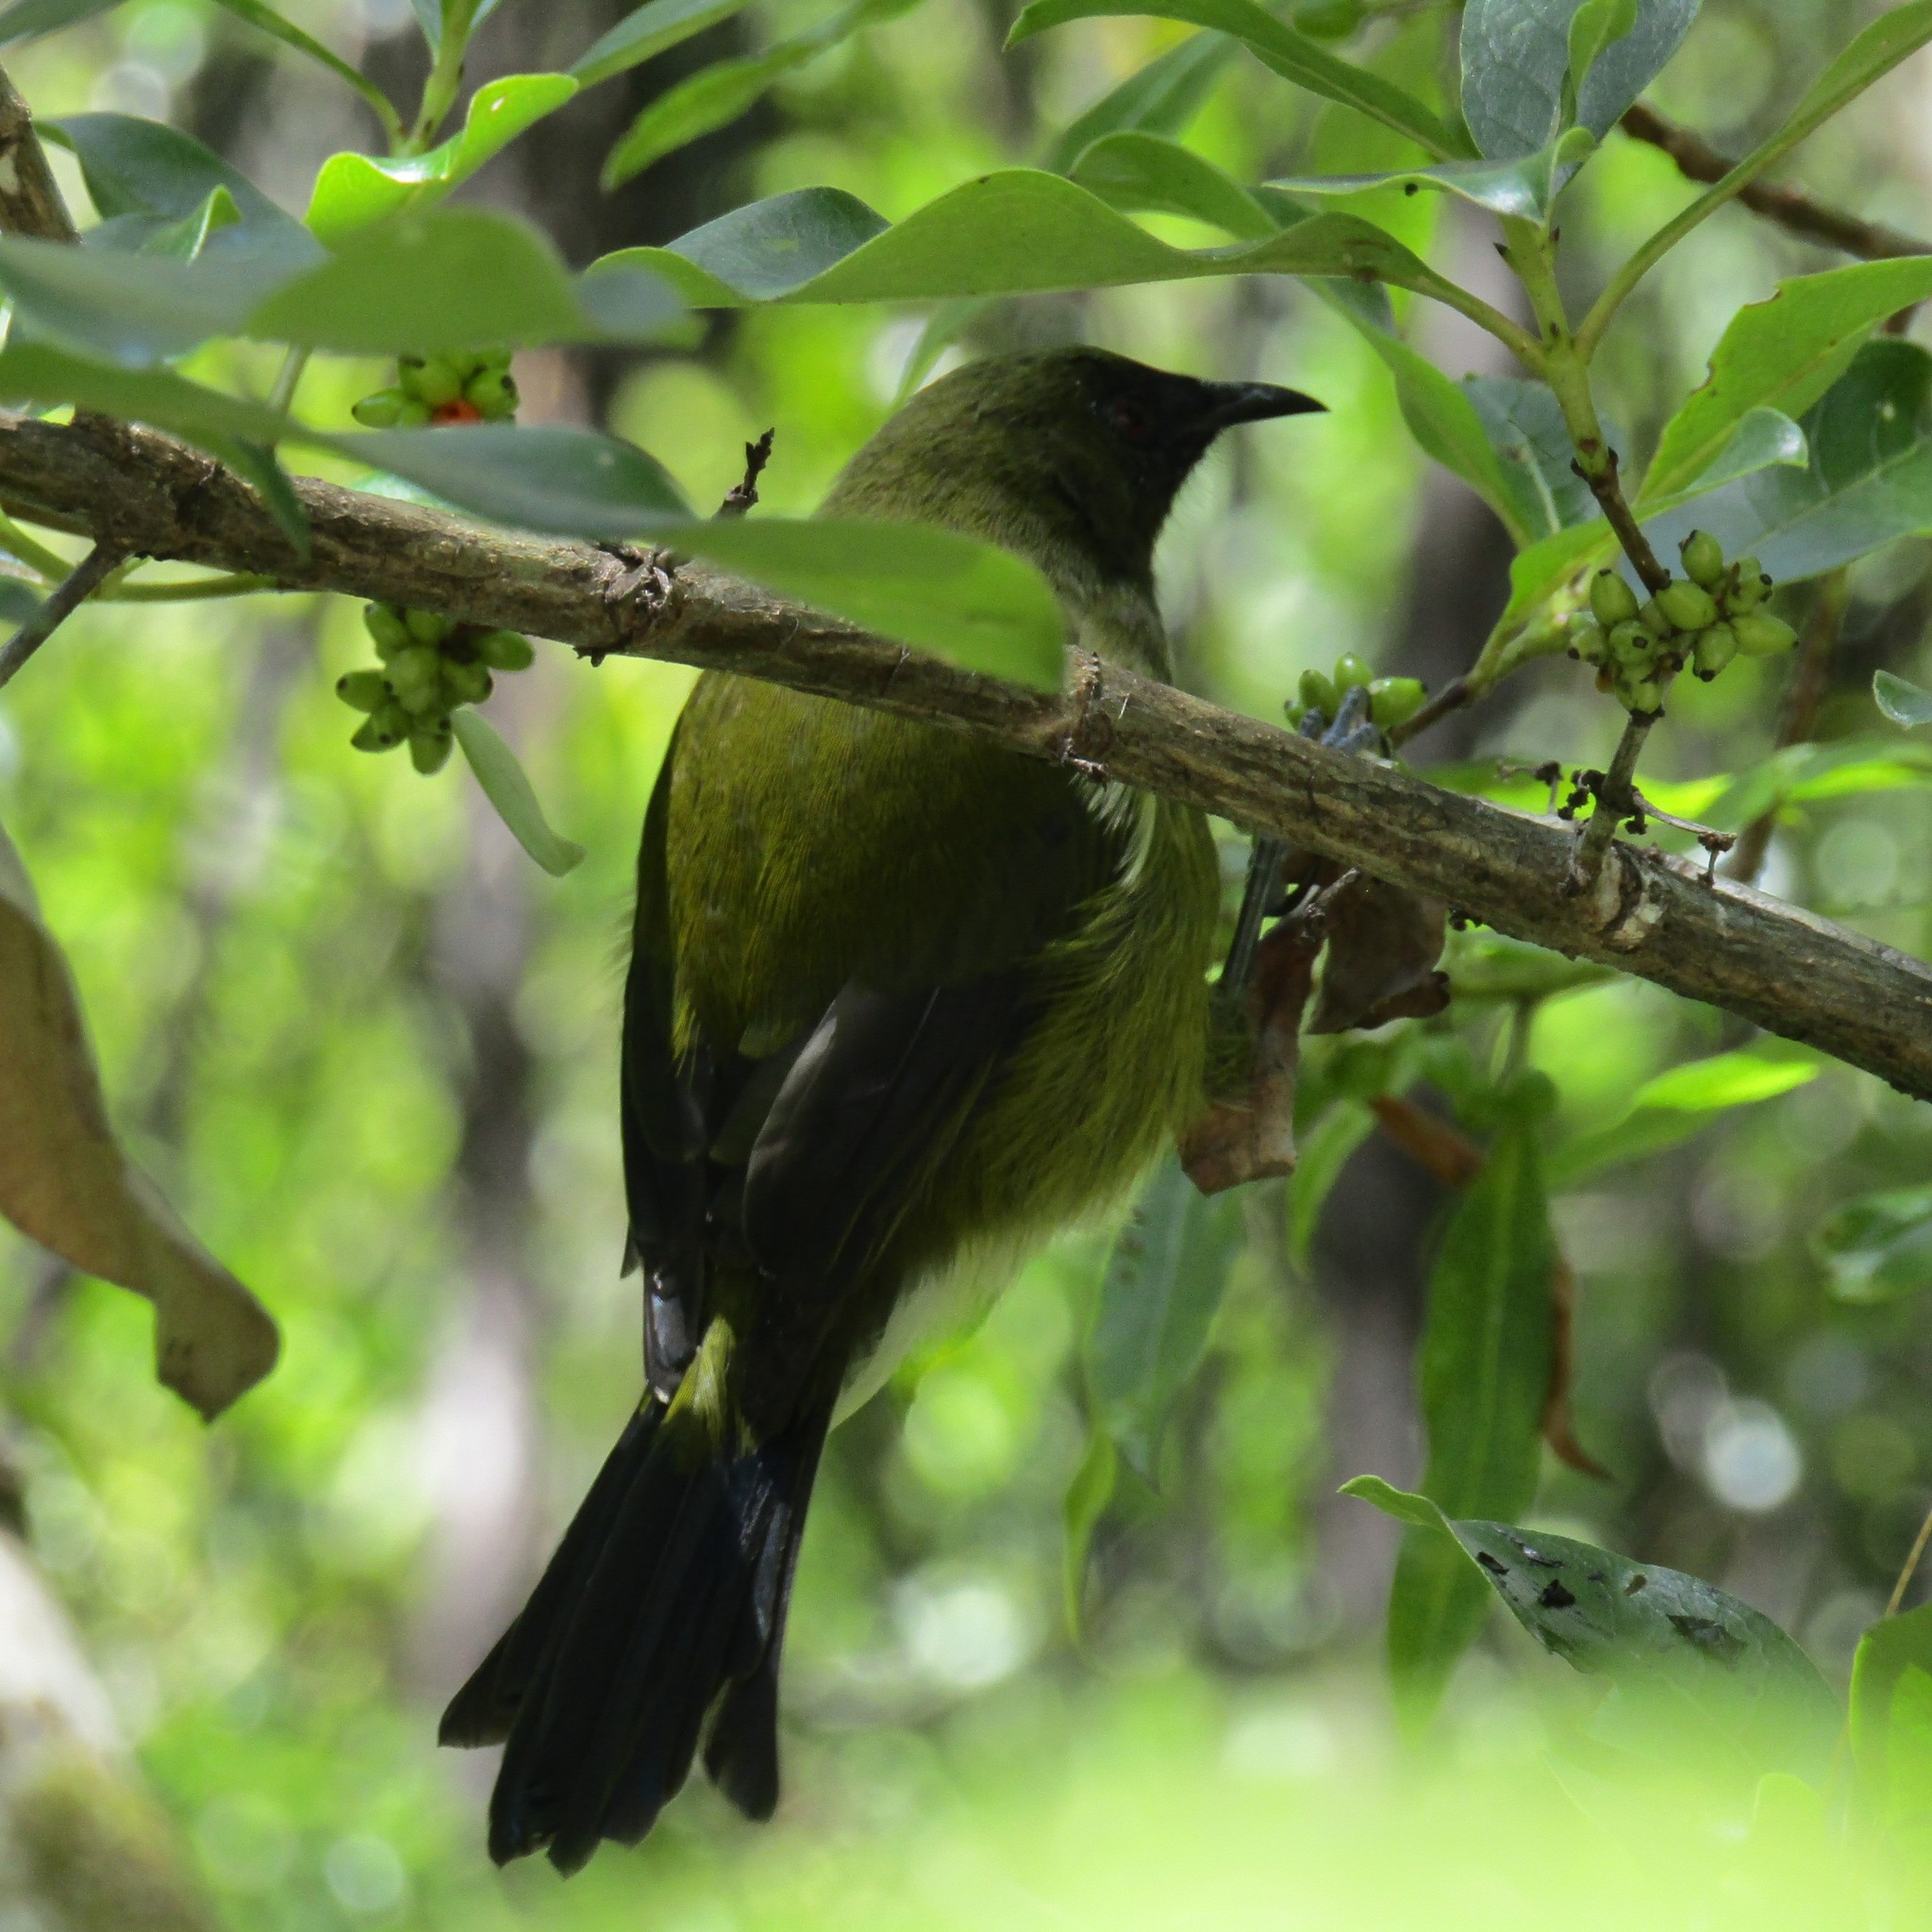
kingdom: Animalia
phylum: Chordata
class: Aves
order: Passeriformes
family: Meliphagidae
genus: Anthornis
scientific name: Anthornis melanura
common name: New zealand bellbird
